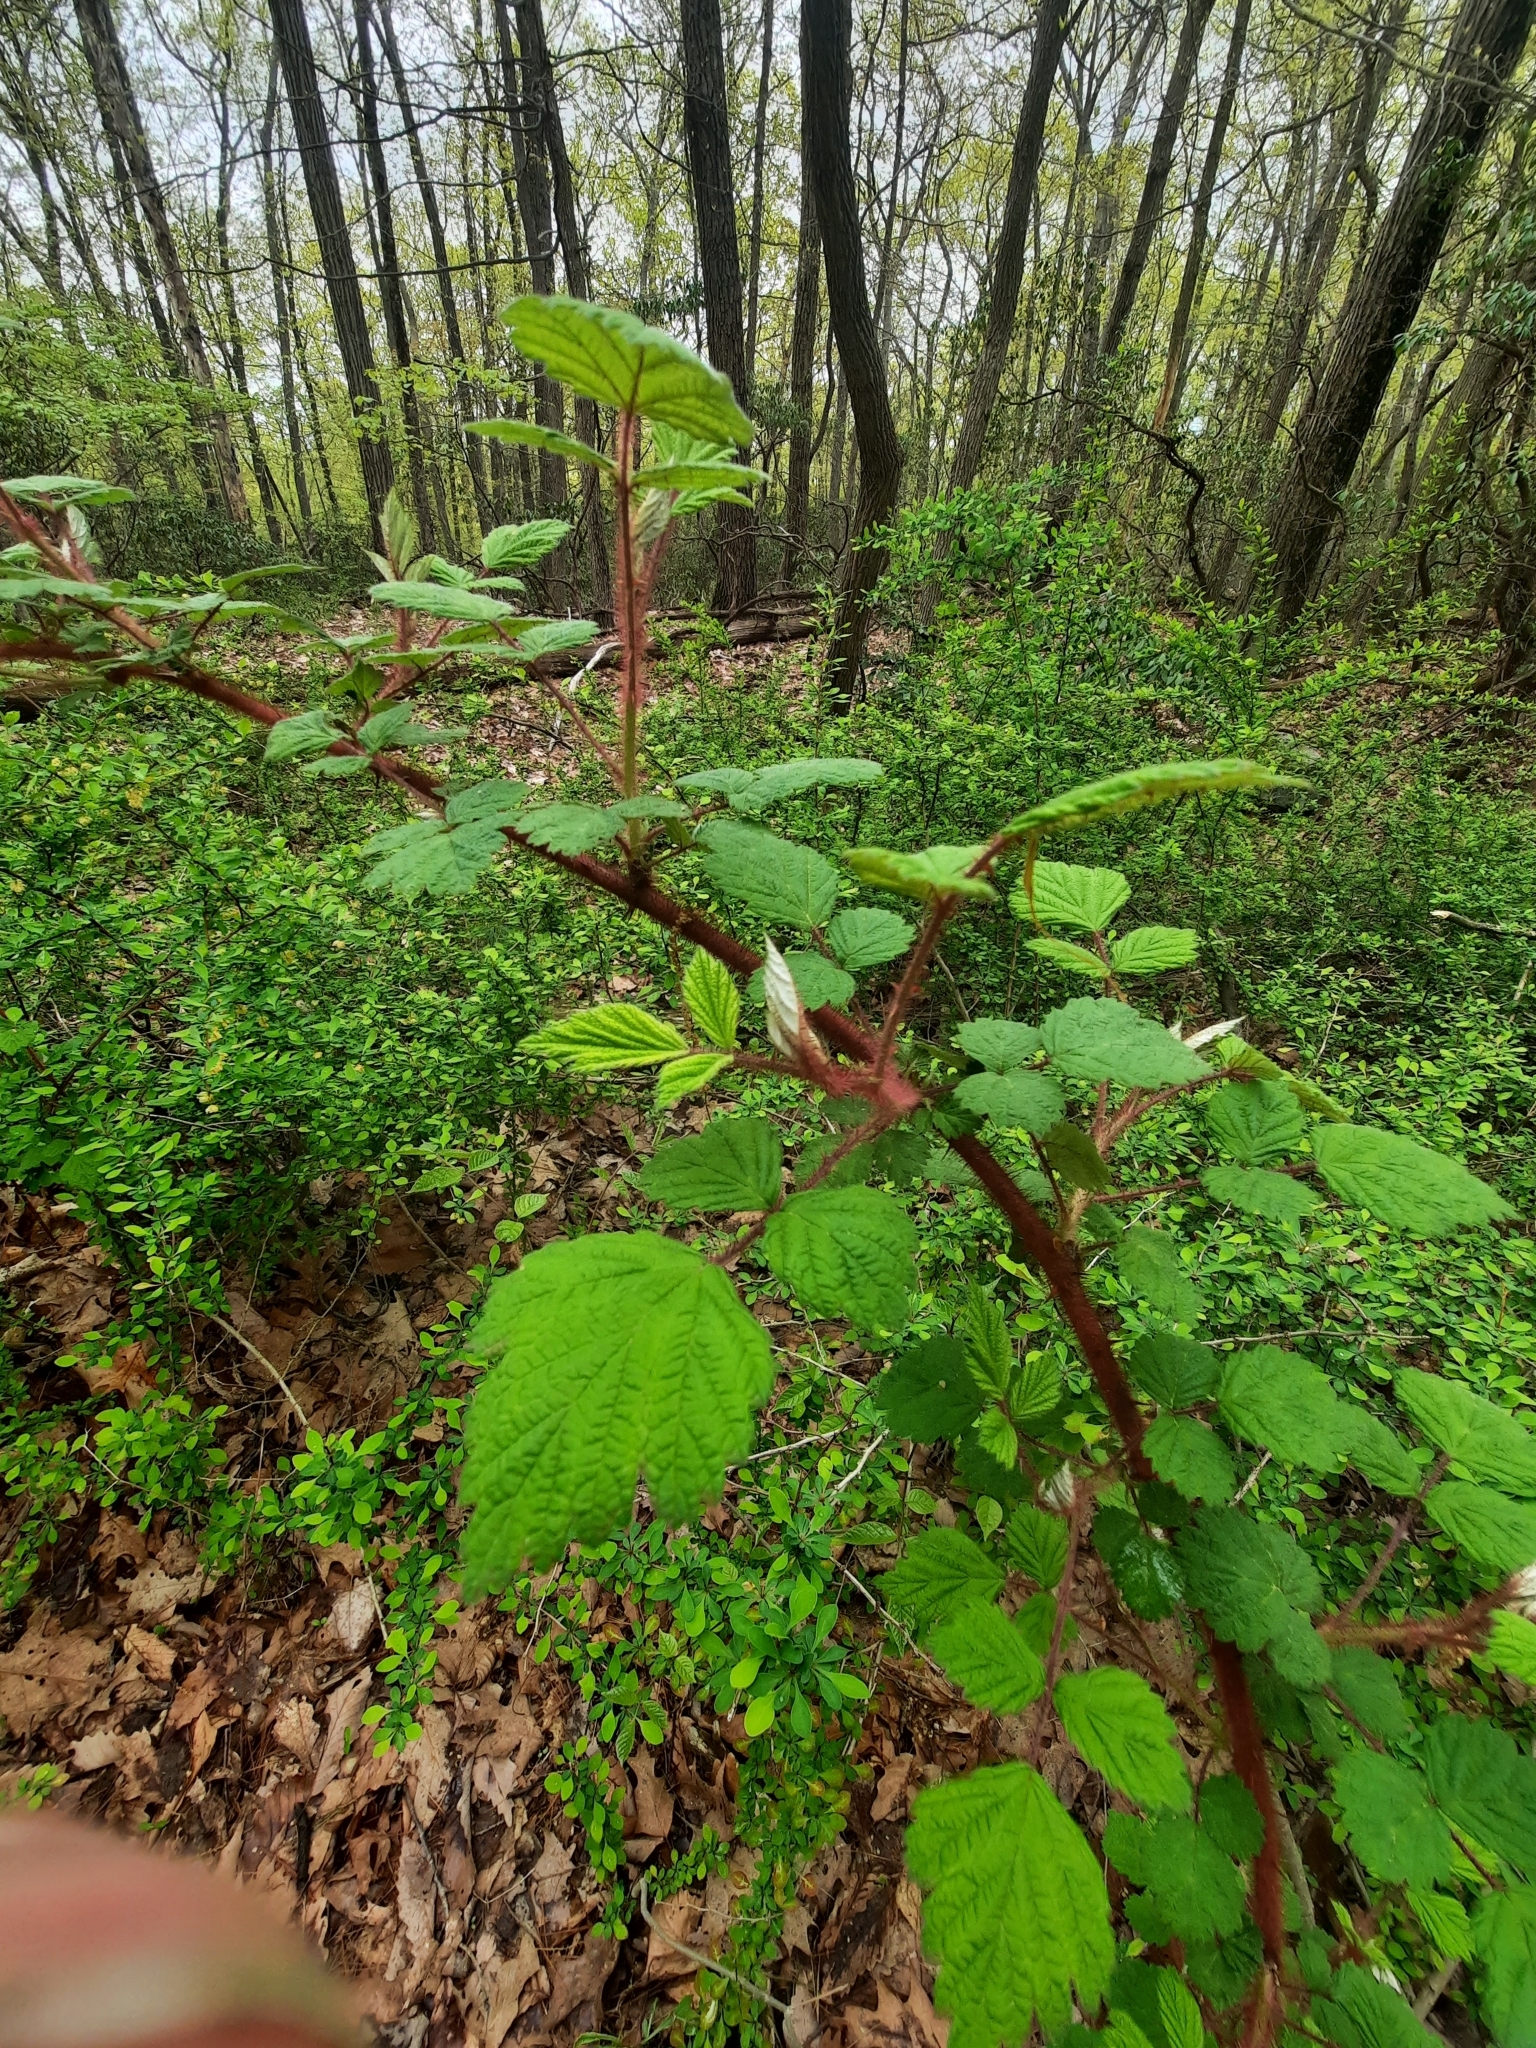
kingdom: Plantae
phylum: Tracheophyta
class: Magnoliopsida
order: Rosales
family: Rosaceae
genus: Rubus
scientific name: Rubus phoenicolasius
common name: Japanese wineberry
